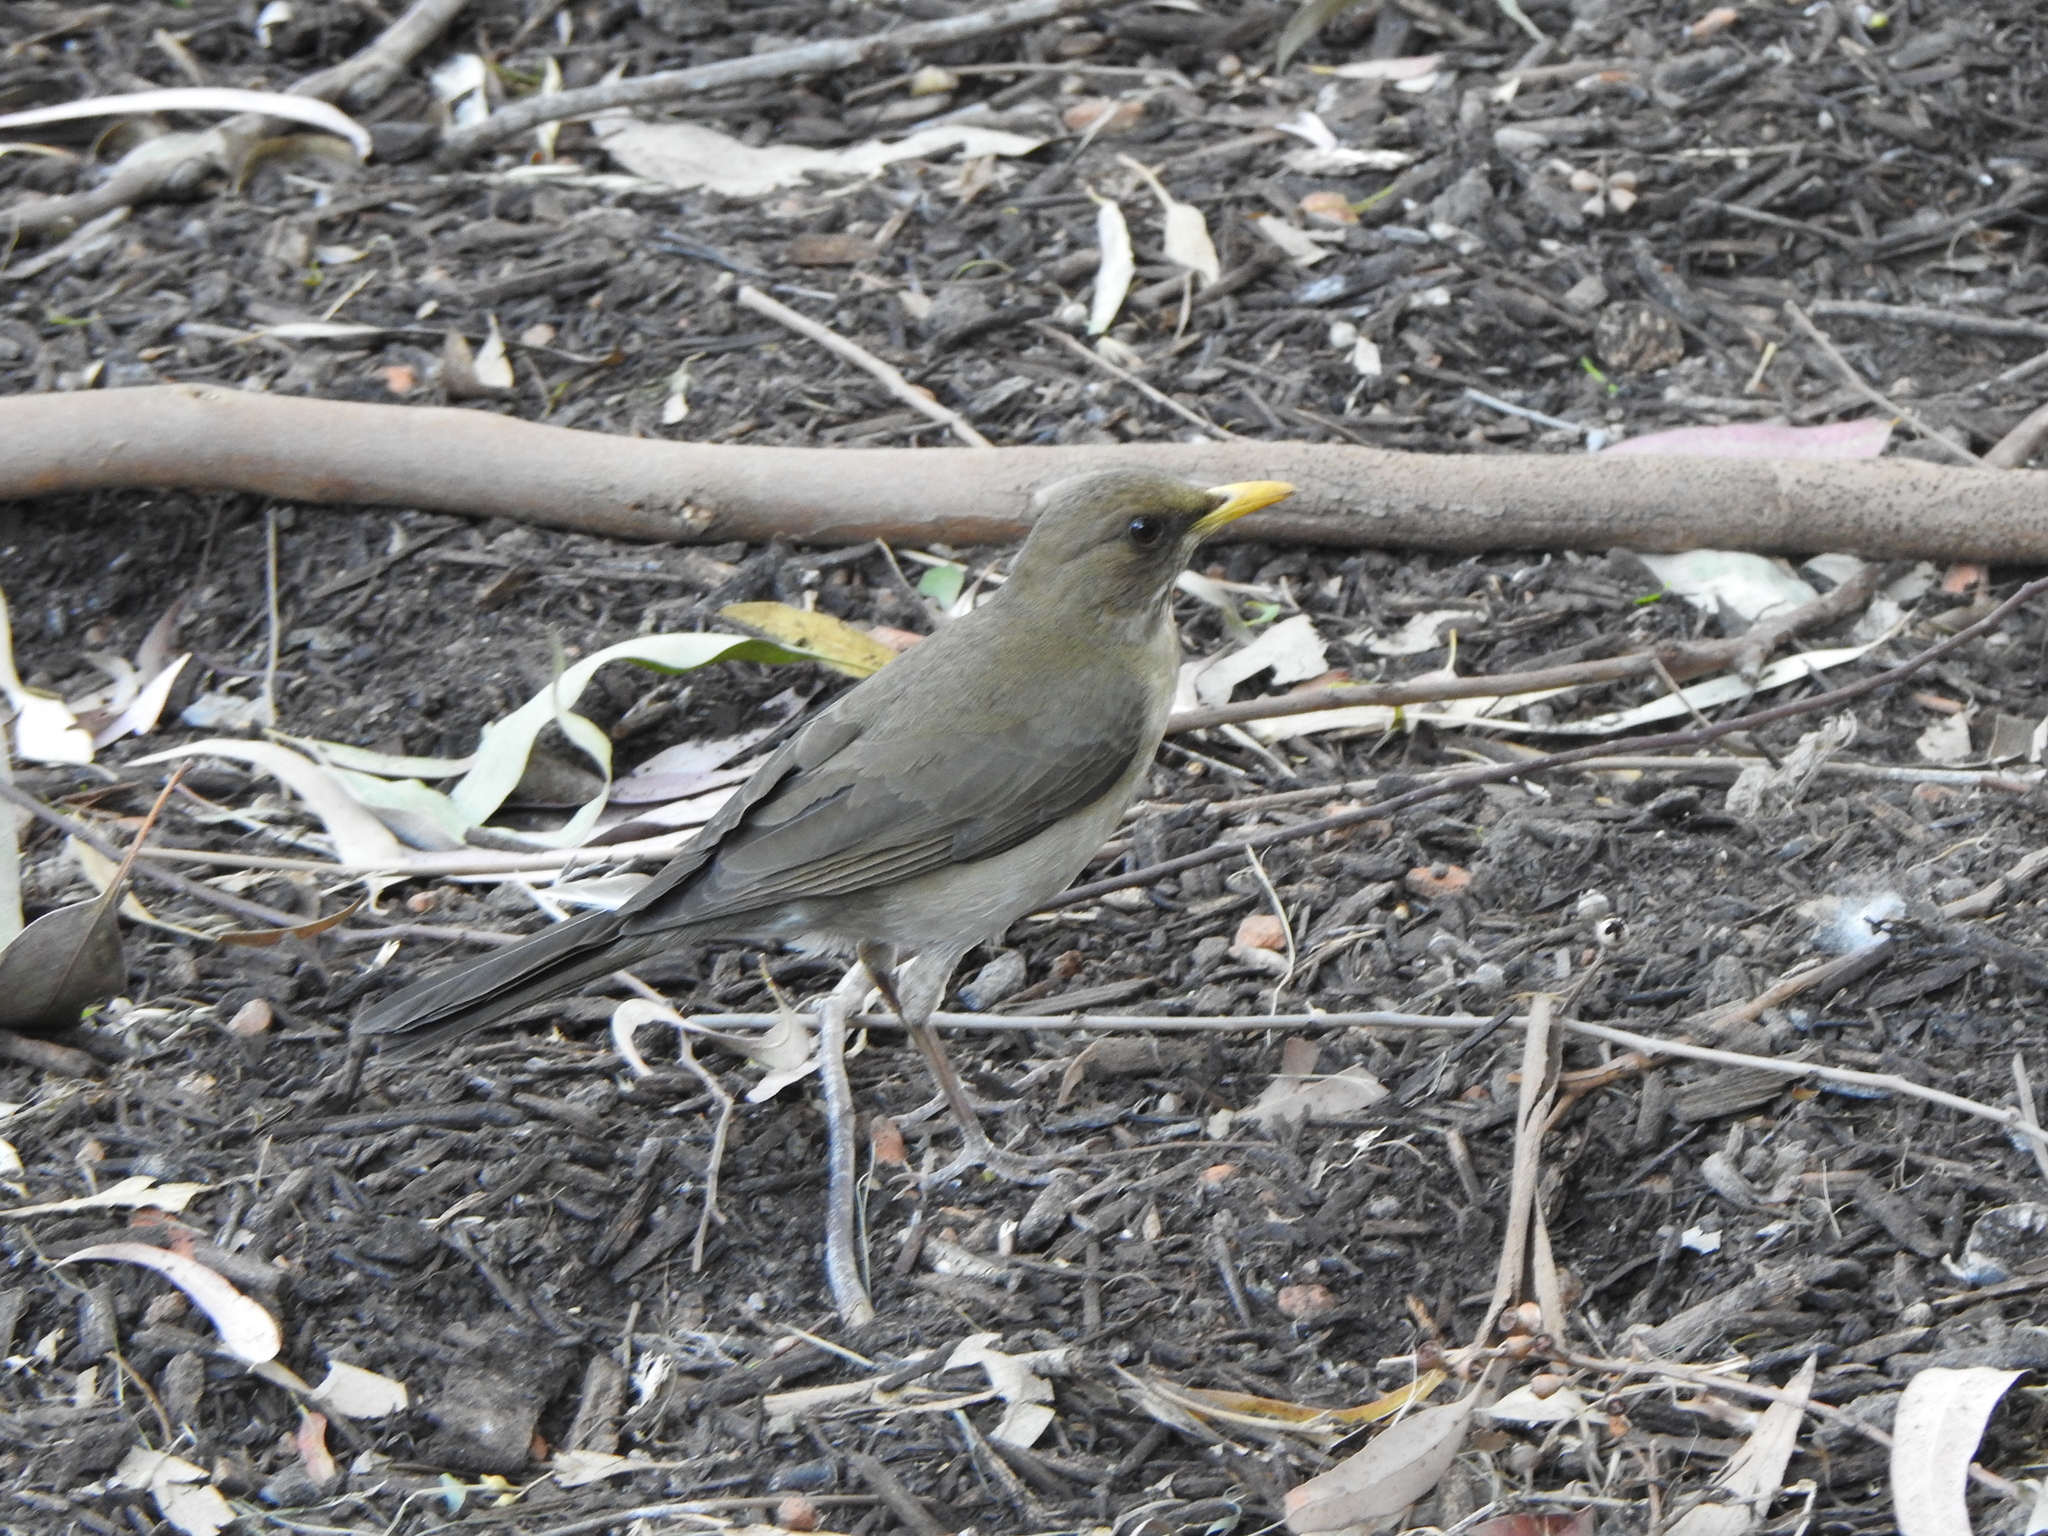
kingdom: Animalia
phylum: Chordata
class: Aves
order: Passeriformes
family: Turdidae
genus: Turdus
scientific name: Turdus amaurochalinus
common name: Creamy-bellied thrush
